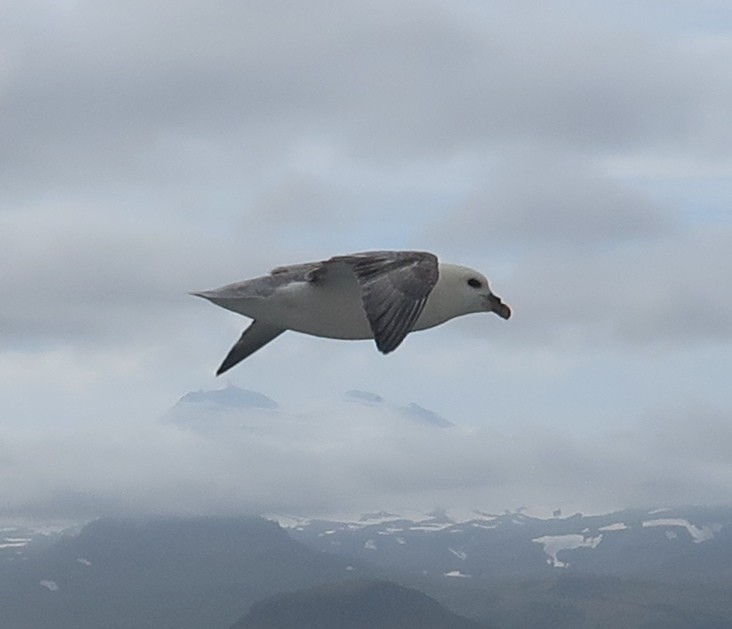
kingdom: Animalia
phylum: Chordata
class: Aves
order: Procellariiformes
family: Procellariidae
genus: Fulmarus
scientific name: Fulmarus glacialis
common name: Northern fulmar
